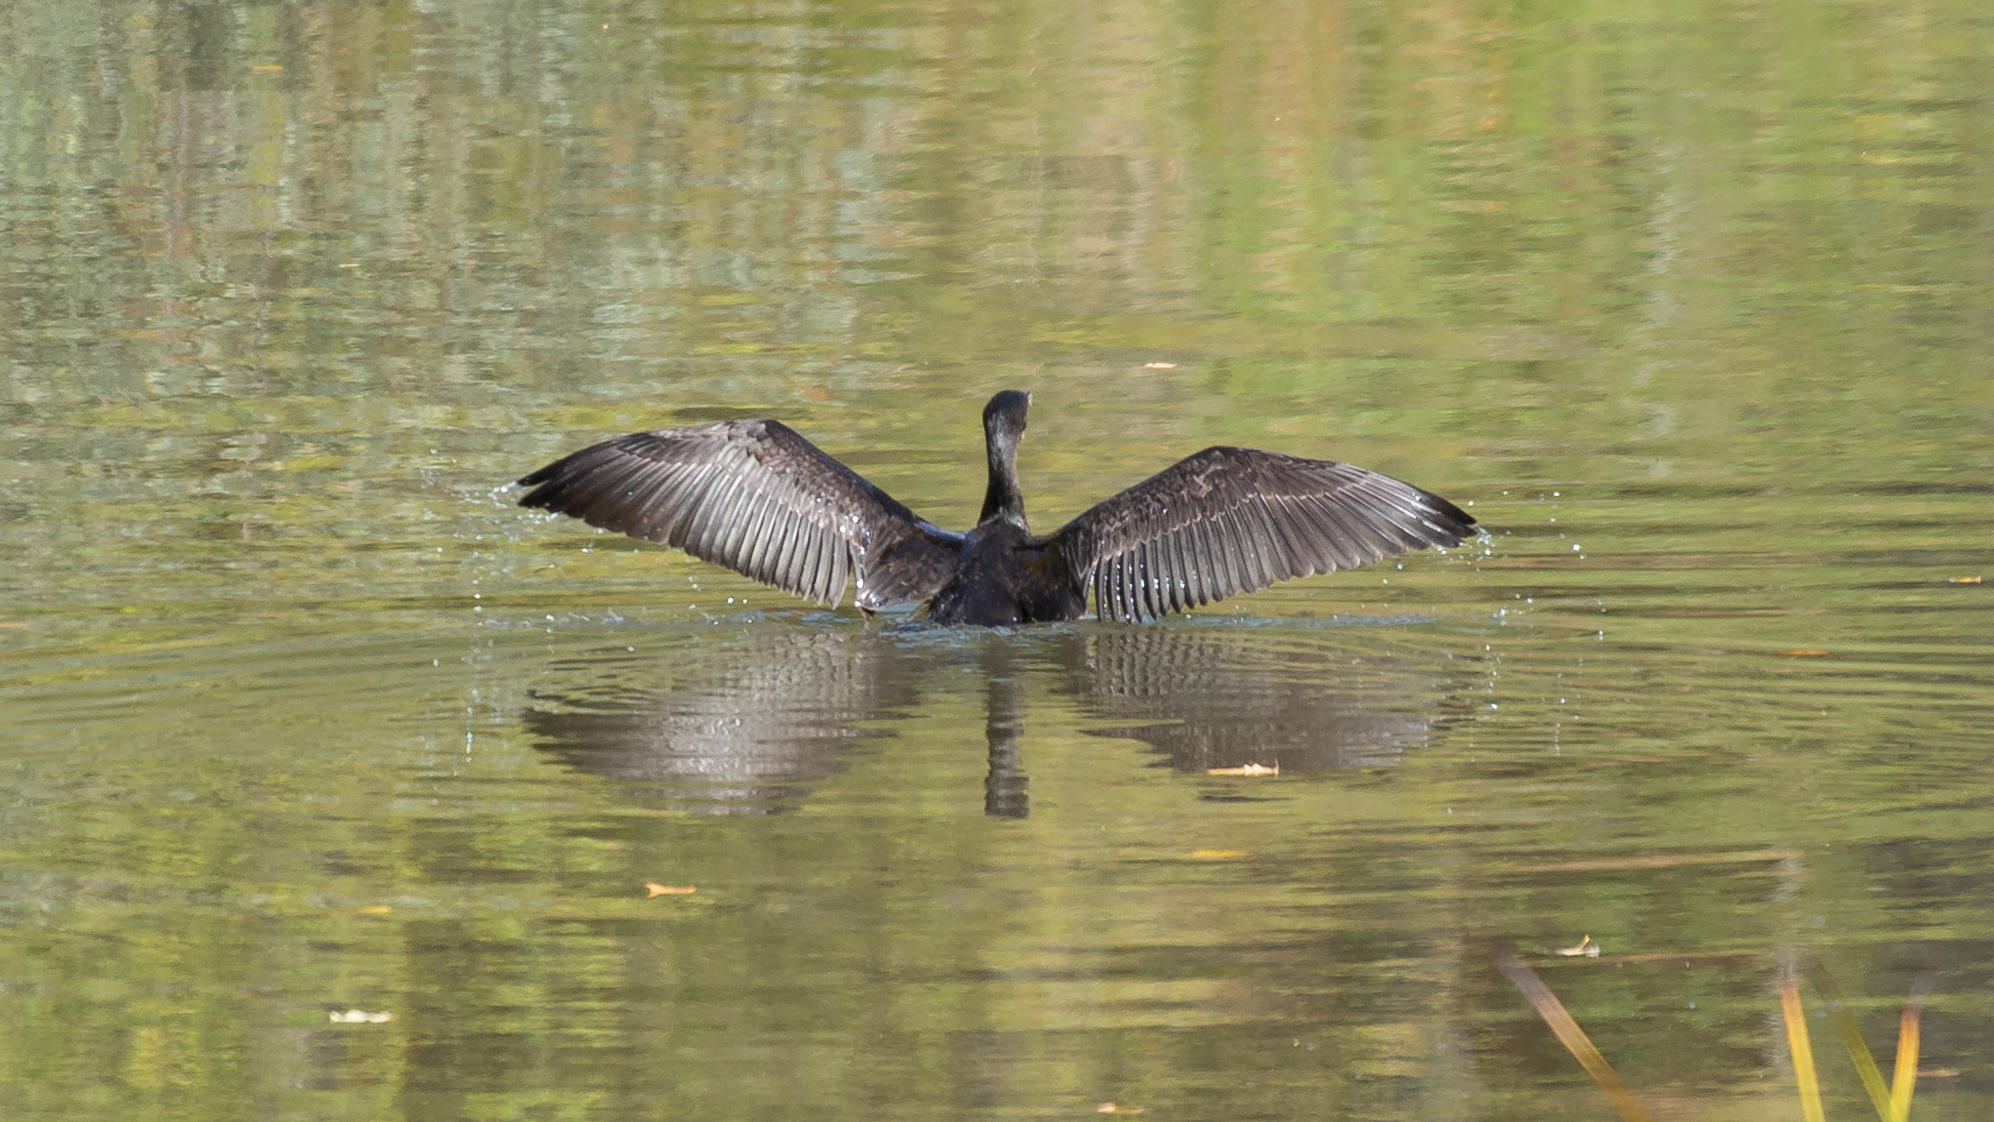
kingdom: Animalia
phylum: Chordata
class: Aves
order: Suliformes
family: Phalacrocoracidae
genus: Phalacrocorax
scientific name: Phalacrocorax carbo
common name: Great cormorant
